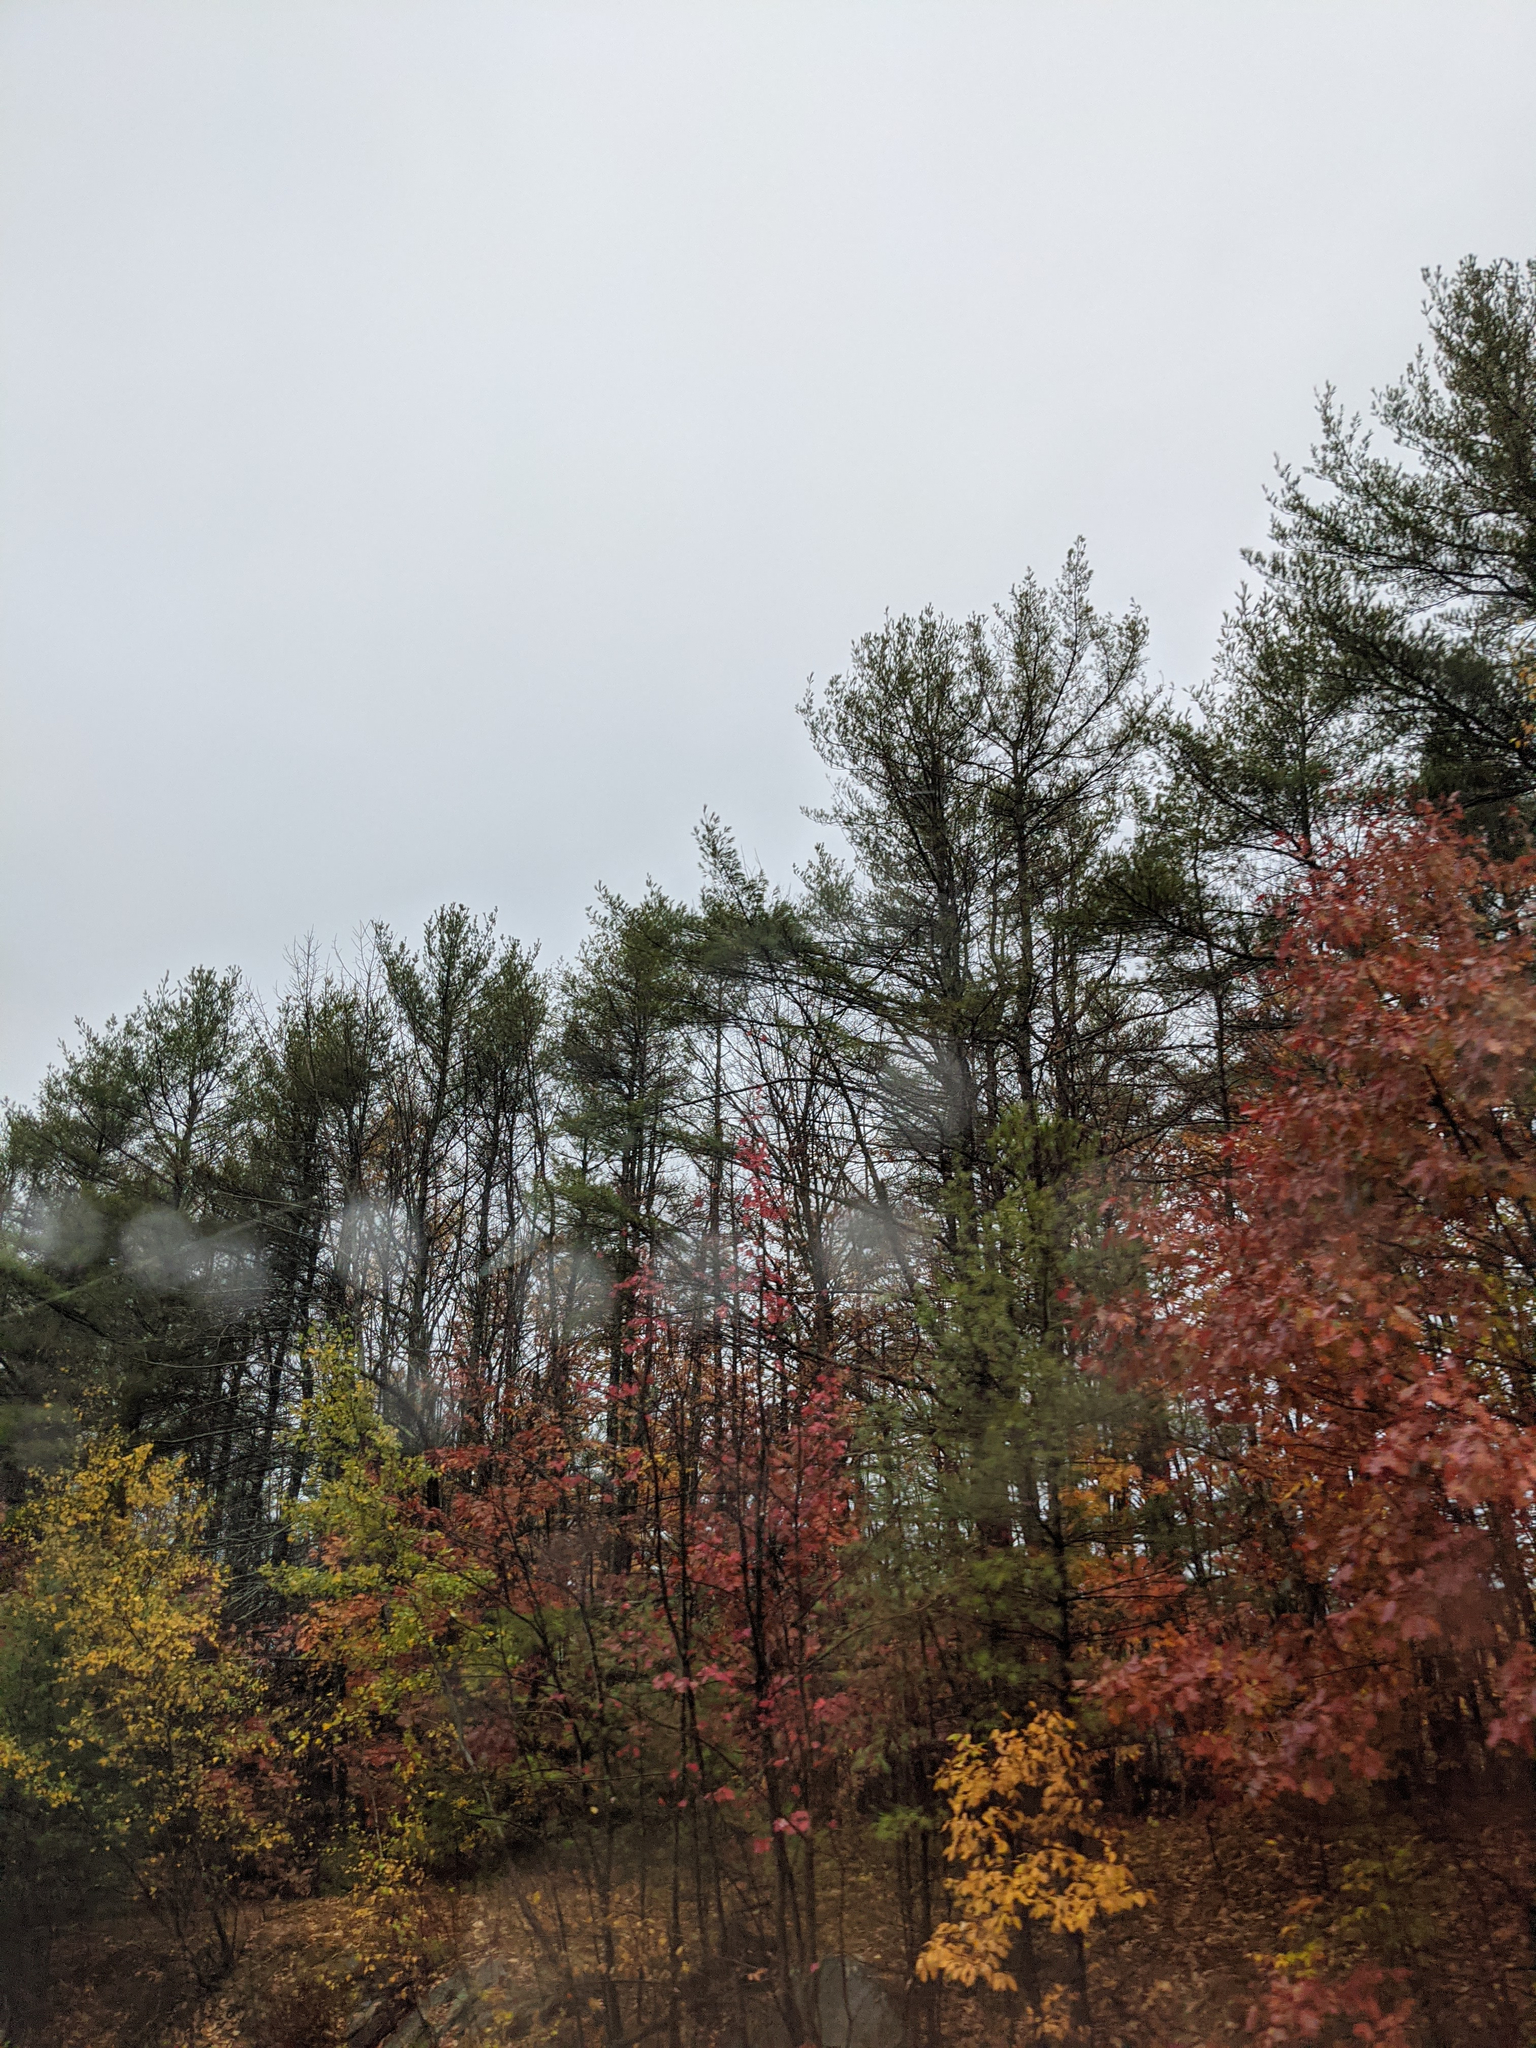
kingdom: Plantae
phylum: Tracheophyta
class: Pinopsida
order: Pinales
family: Pinaceae
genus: Pinus
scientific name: Pinus strobus
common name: Weymouth pine
